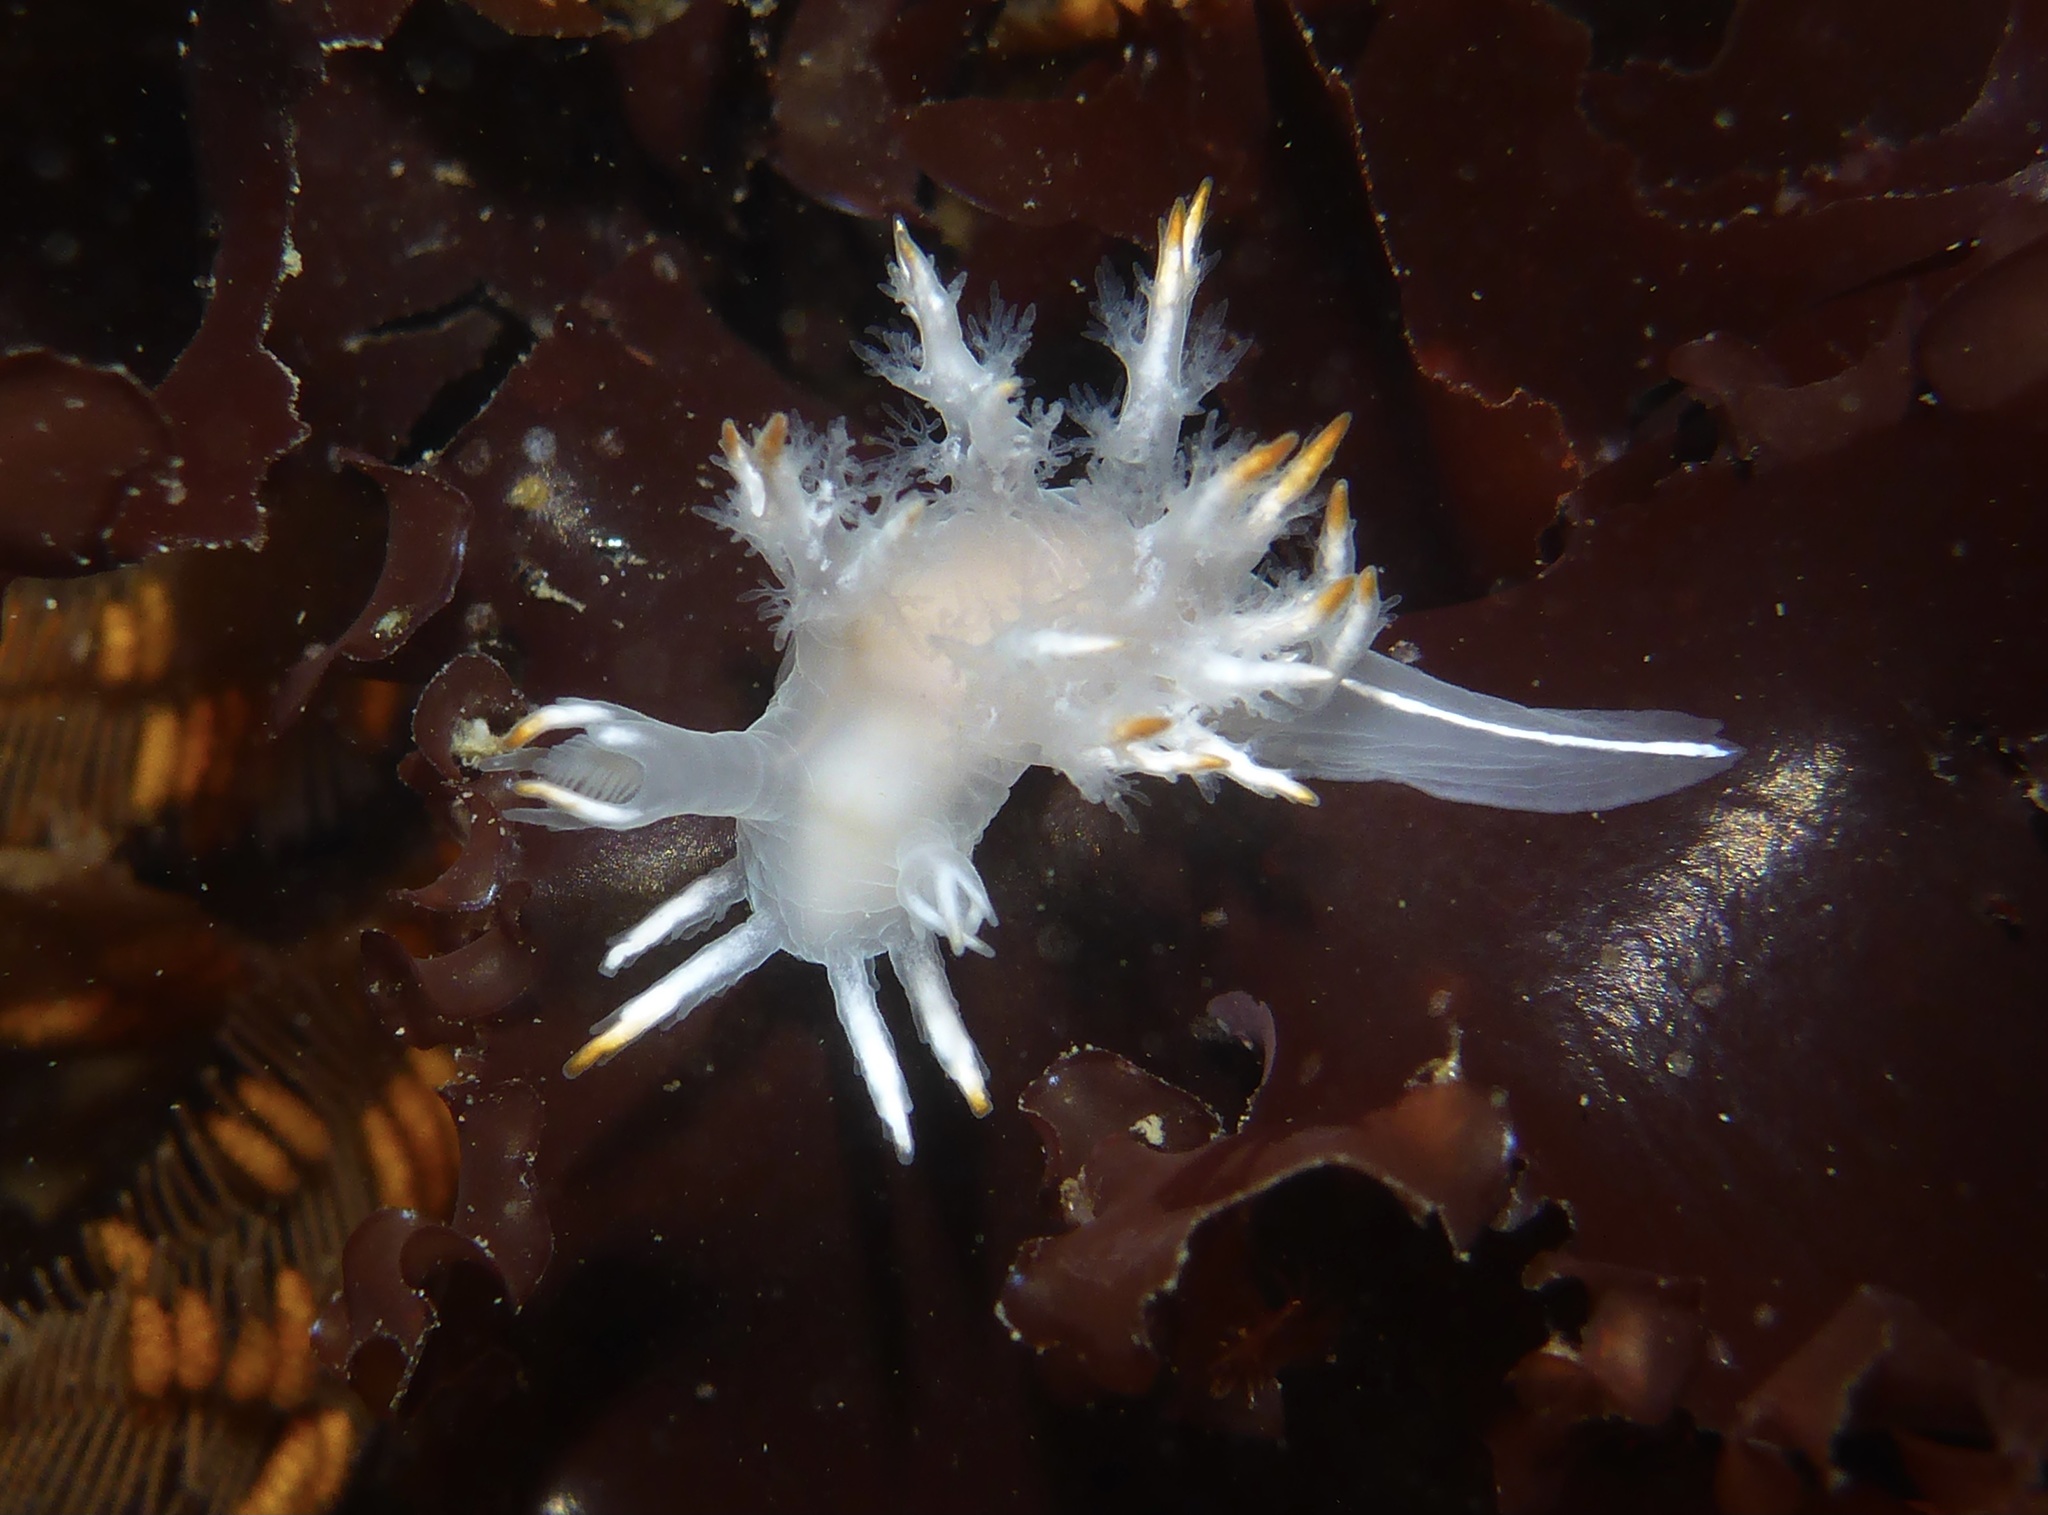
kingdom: Animalia
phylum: Mollusca
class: Gastropoda
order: Nudibranchia
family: Dendronotidae
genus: Dendronotus
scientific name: Dendronotus albus
